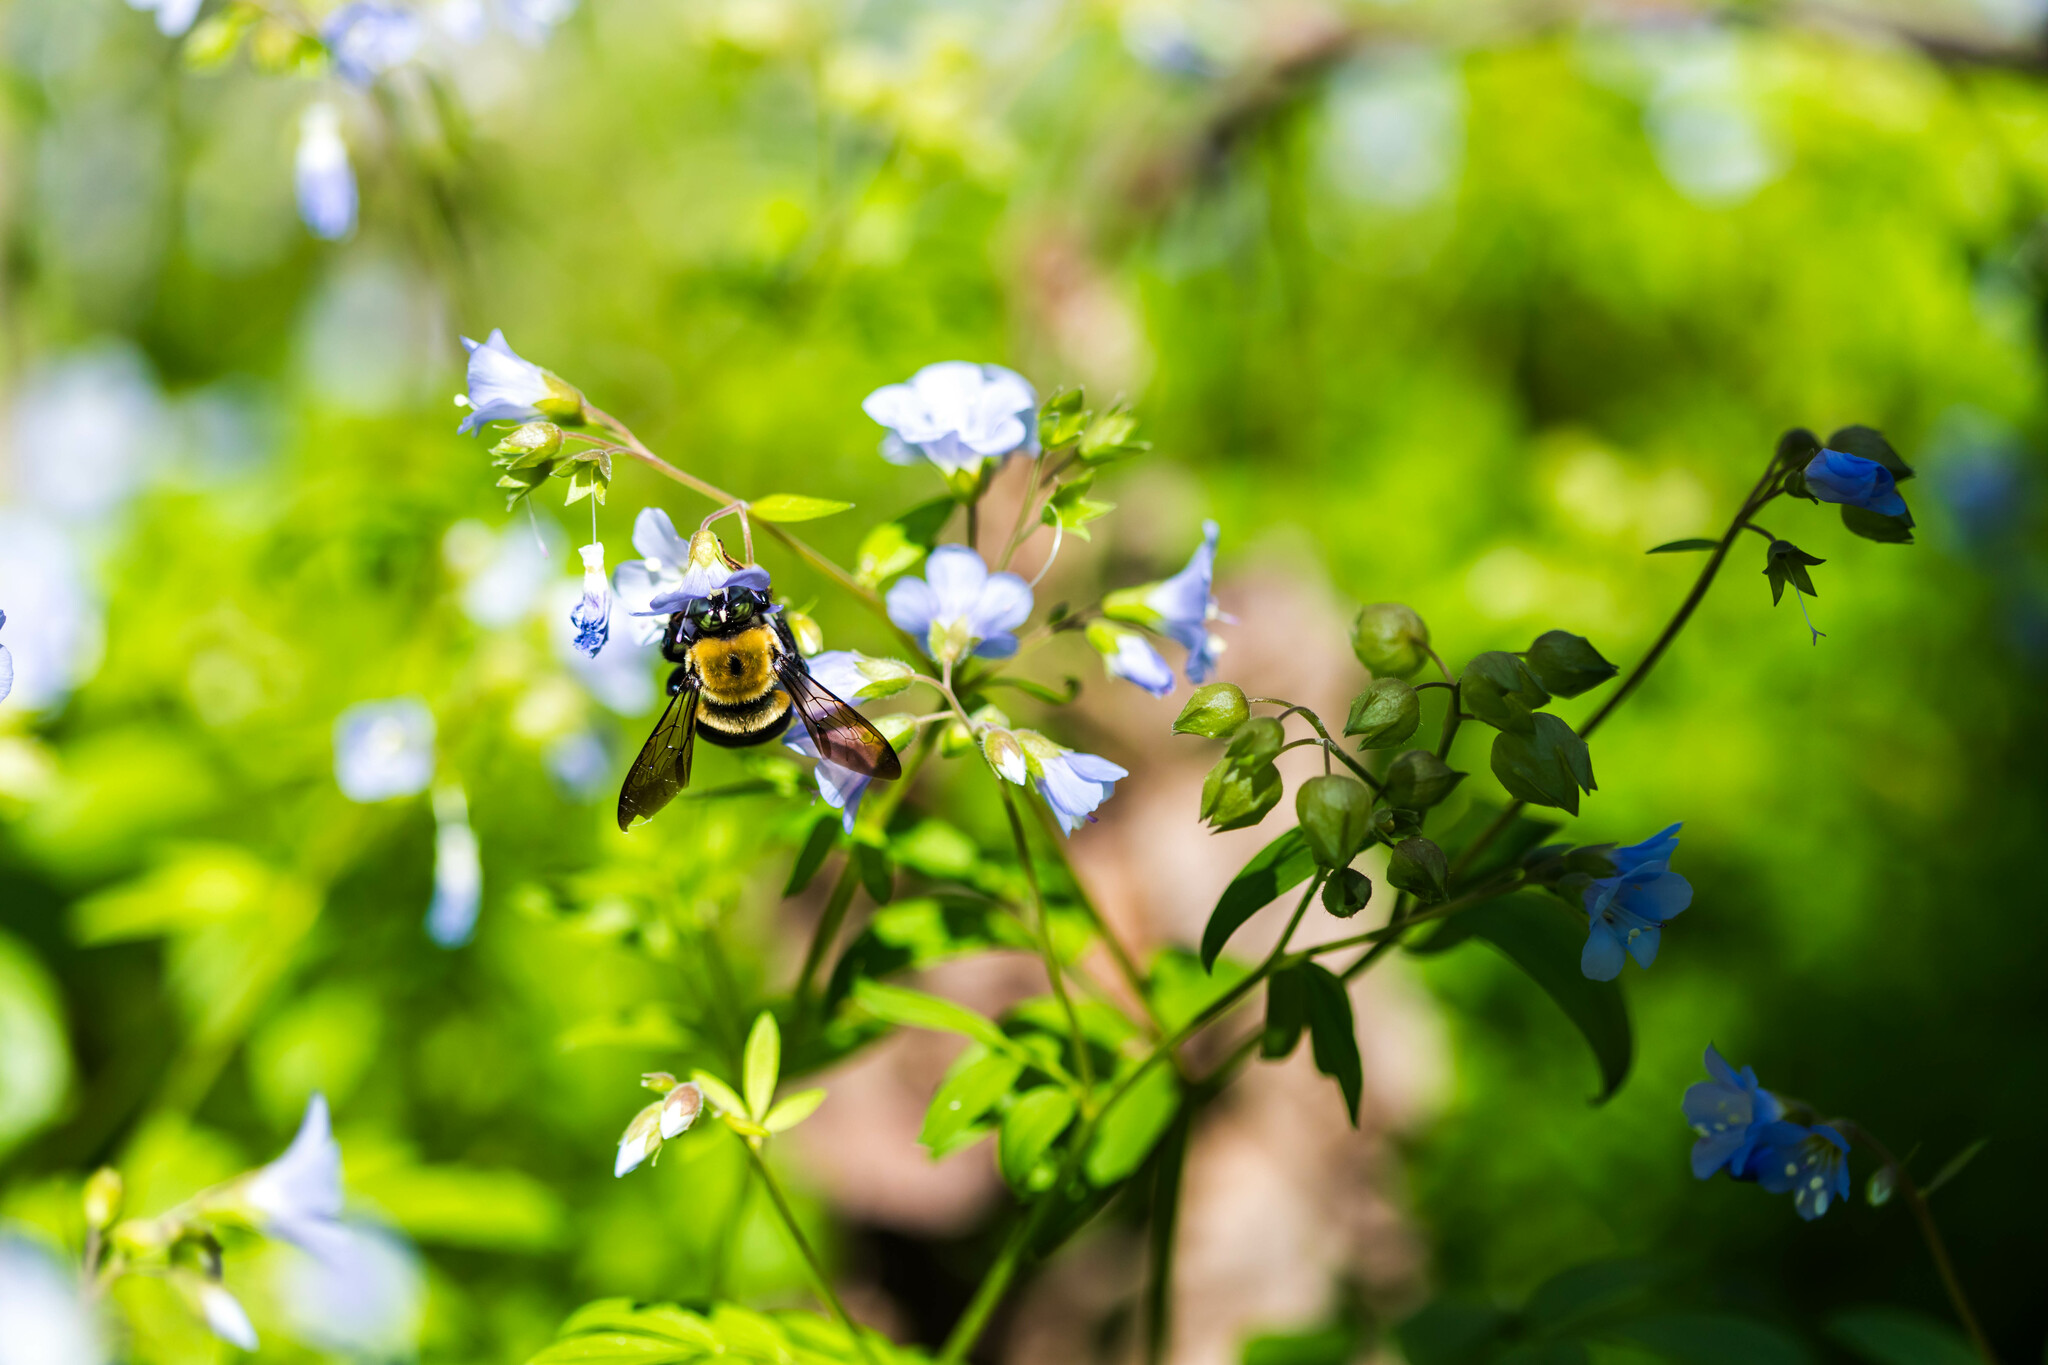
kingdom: Animalia
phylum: Arthropoda
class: Insecta
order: Hymenoptera
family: Apidae
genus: Xylocopa
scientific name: Xylocopa virginica
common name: Carpenter bee
